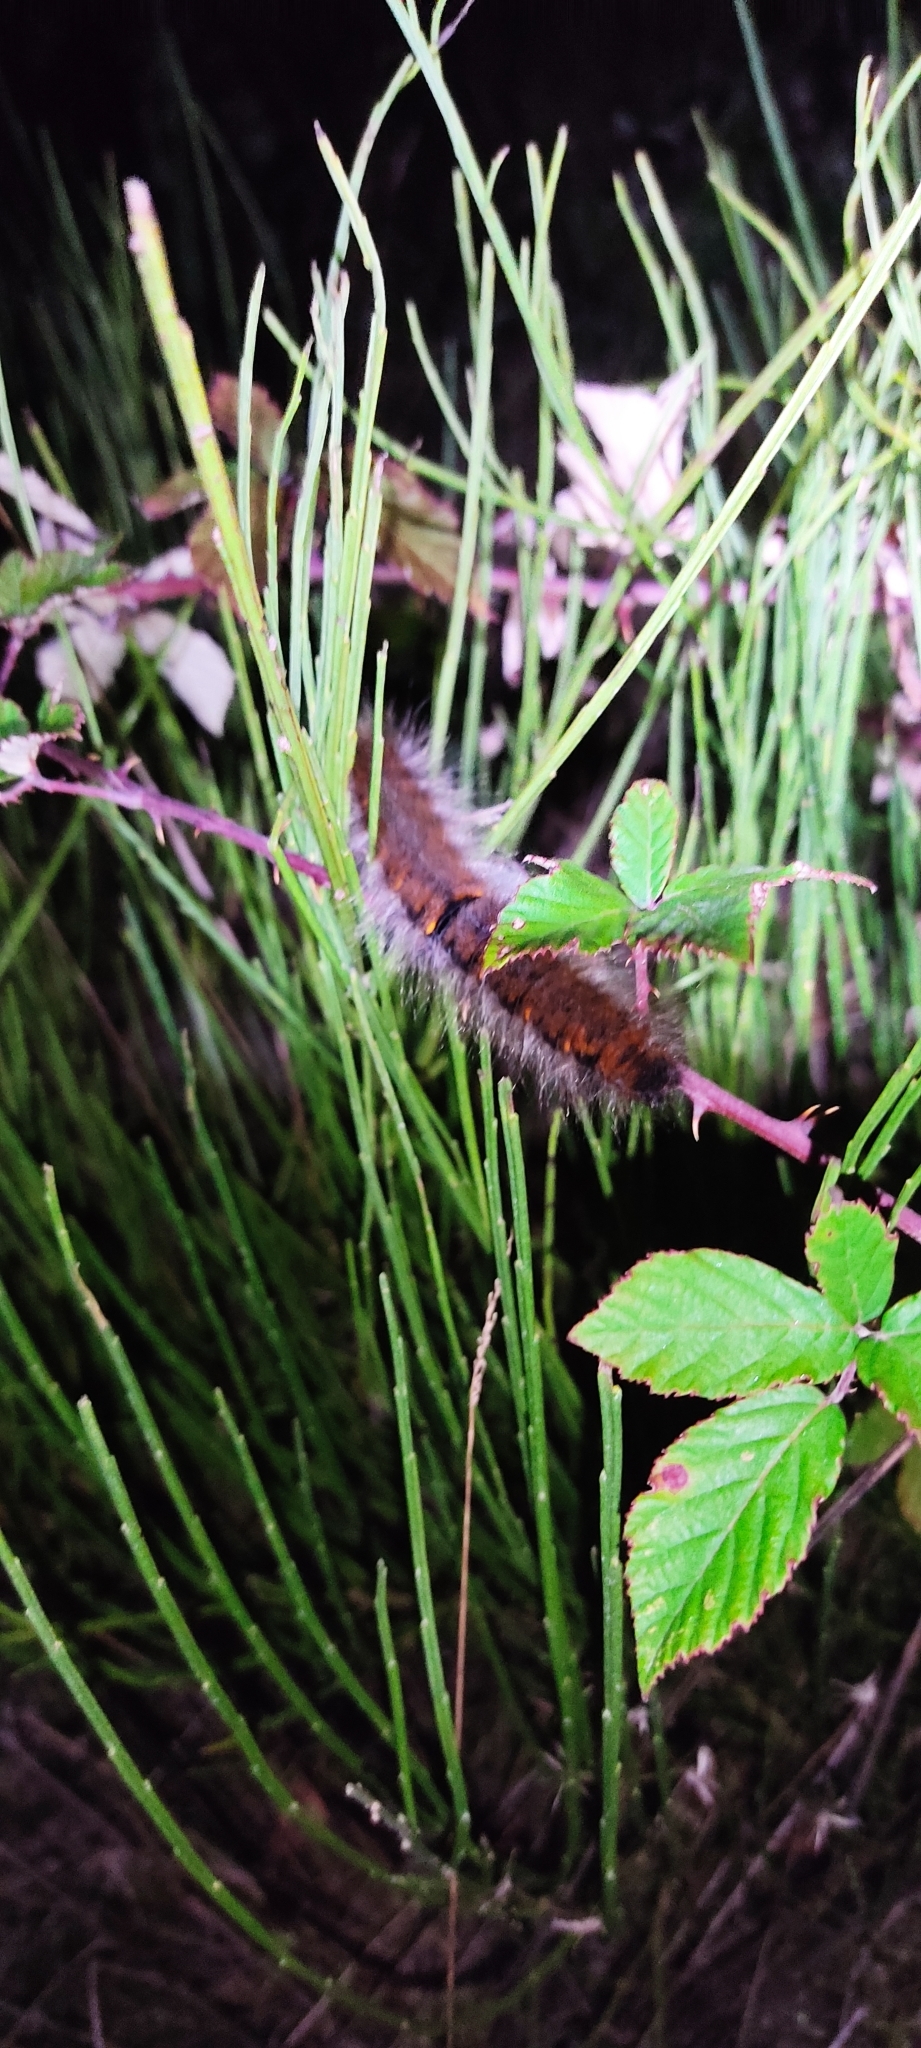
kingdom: Animalia
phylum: Arthropoda
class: Insecta
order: Lepidoptera
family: Lasiocampidae
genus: Macrothylacia
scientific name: Macrothylacia rubi
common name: Fox moth
